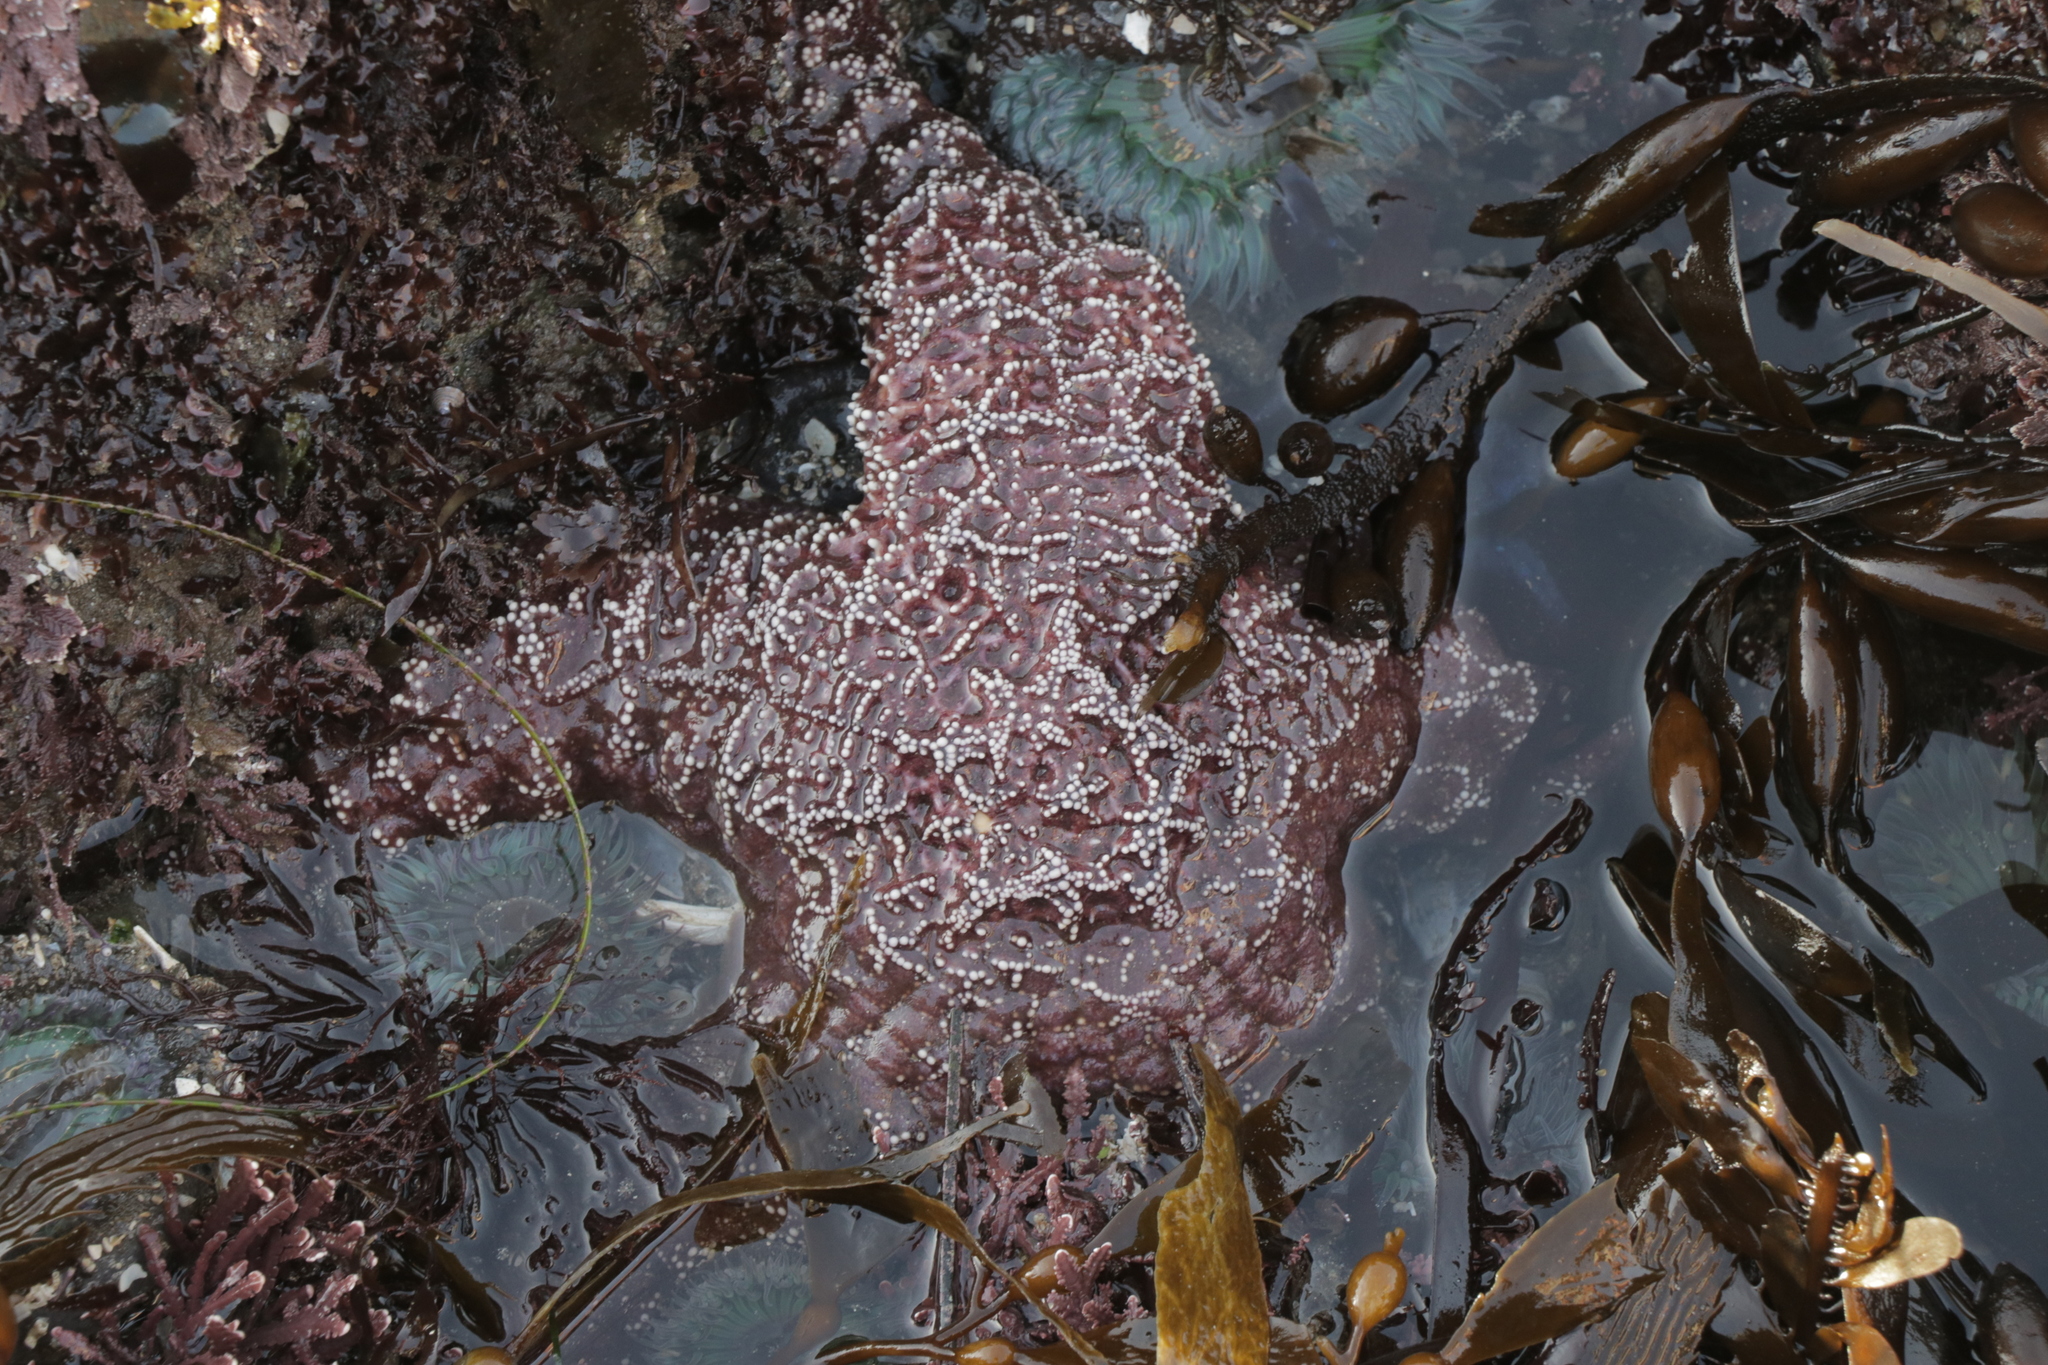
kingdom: Animalia
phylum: Echinodermata
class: Asteroidea
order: Forcipulatida
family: Asteriidae
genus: Pisaster
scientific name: Pisaster ochraceus
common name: Ochre stars
